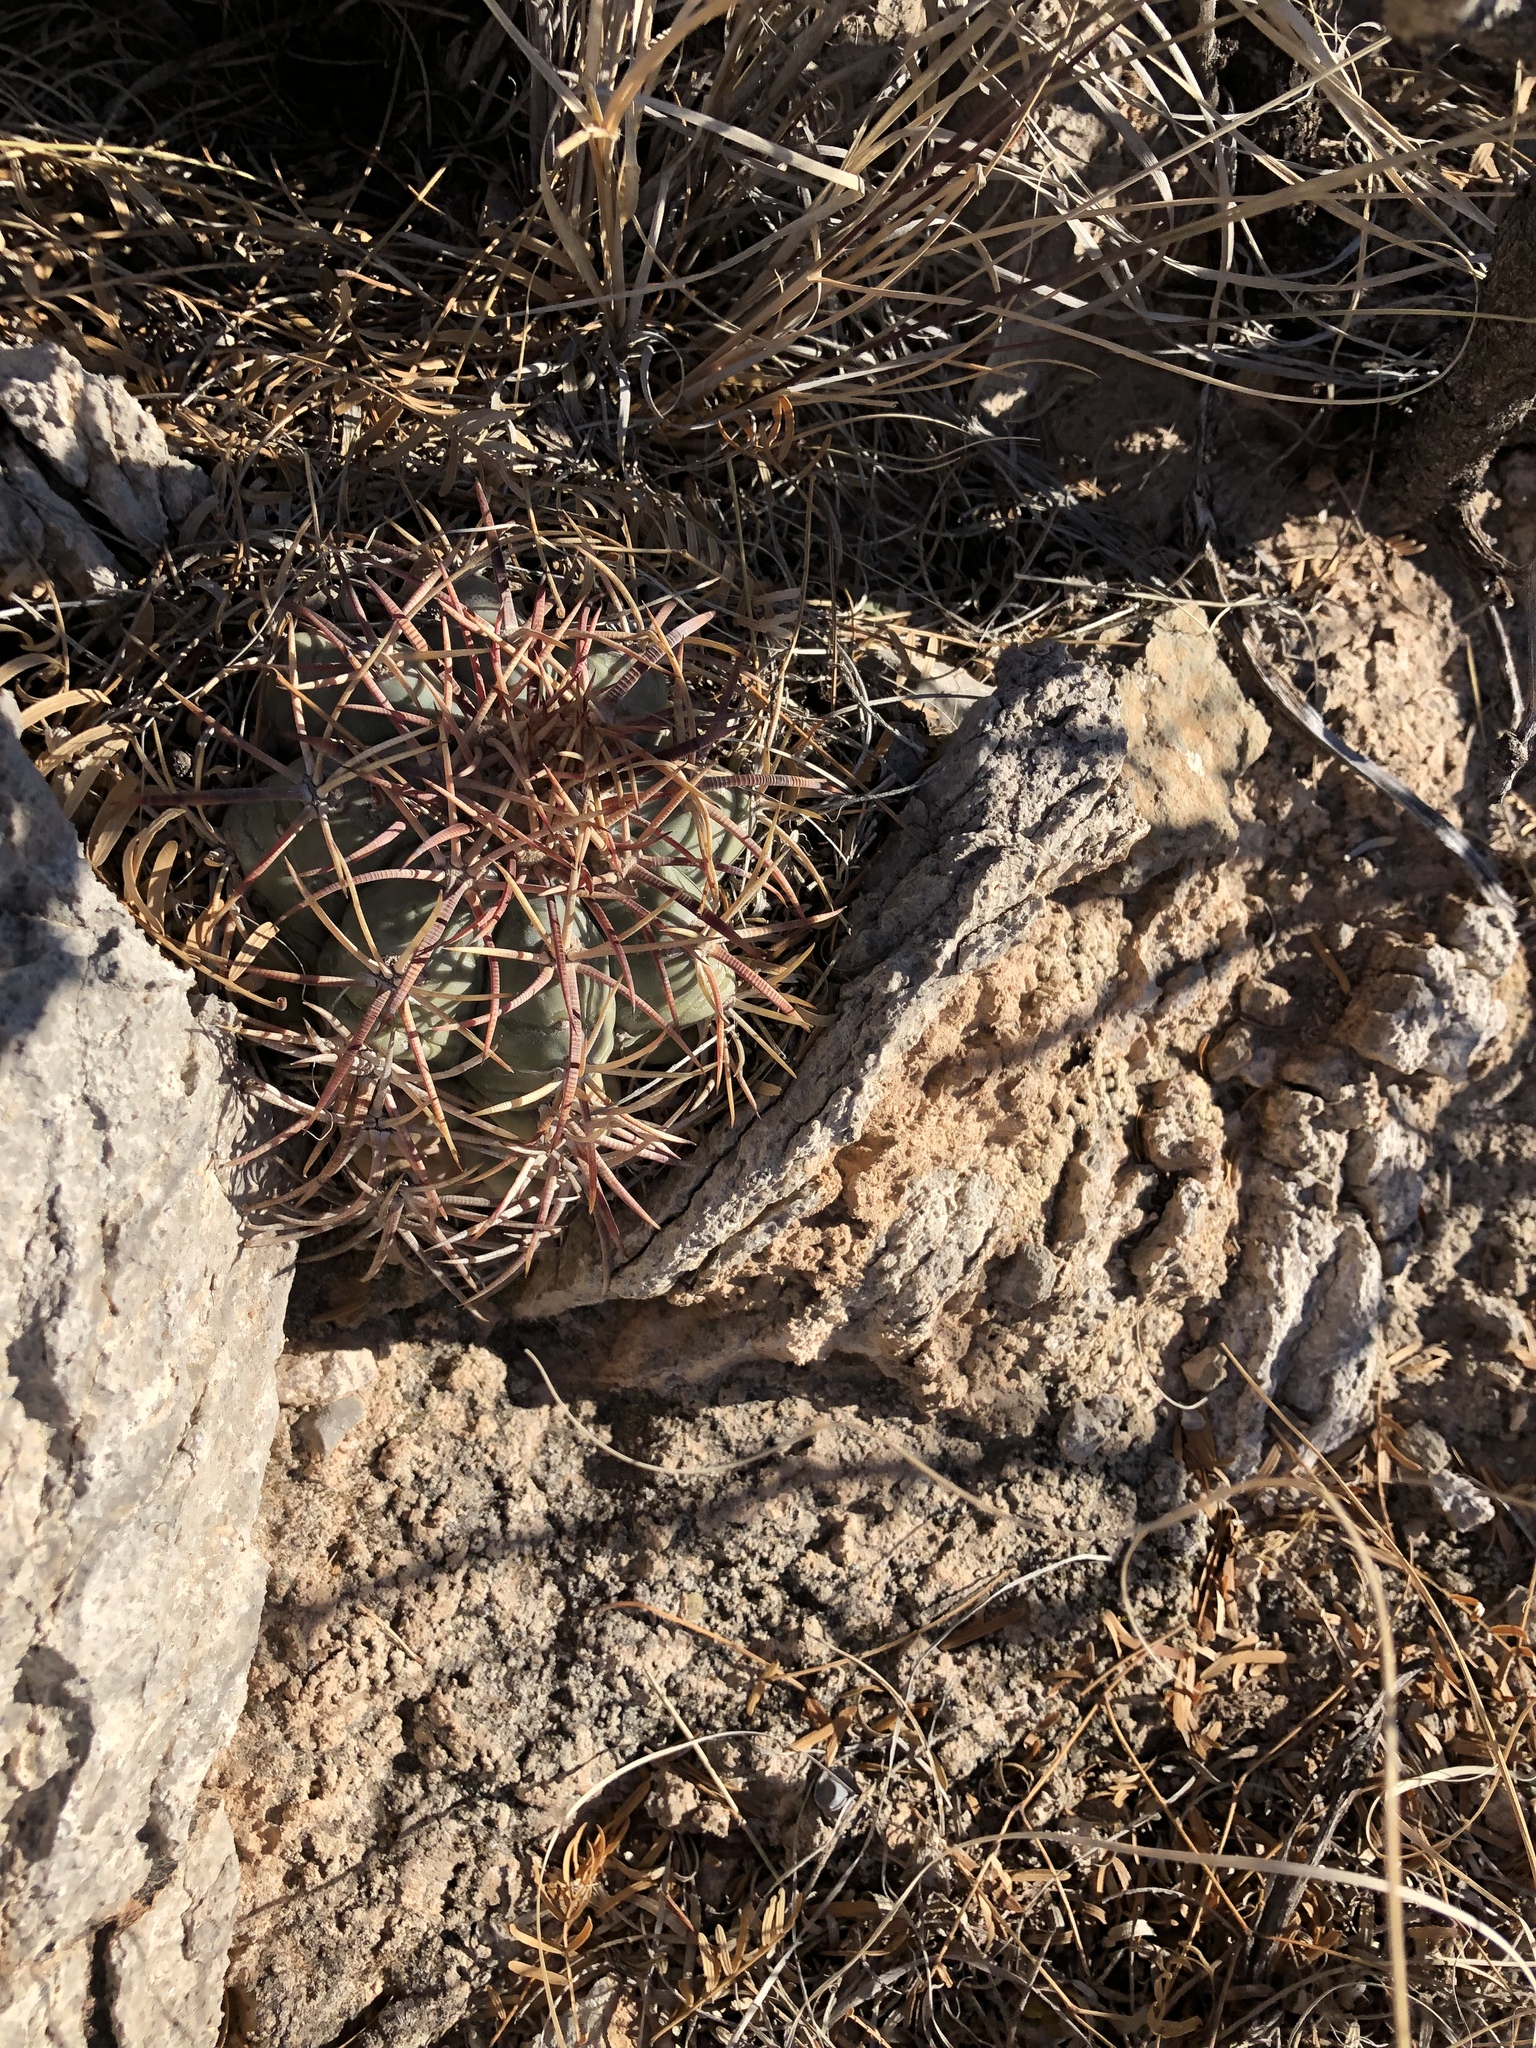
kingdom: Plantae
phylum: Tracheophyta
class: Magnoliopsida
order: Caryophyllales
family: Cactaceae
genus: Echinocactus
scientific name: Echinocactus horizonthalonius
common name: Devilshead
